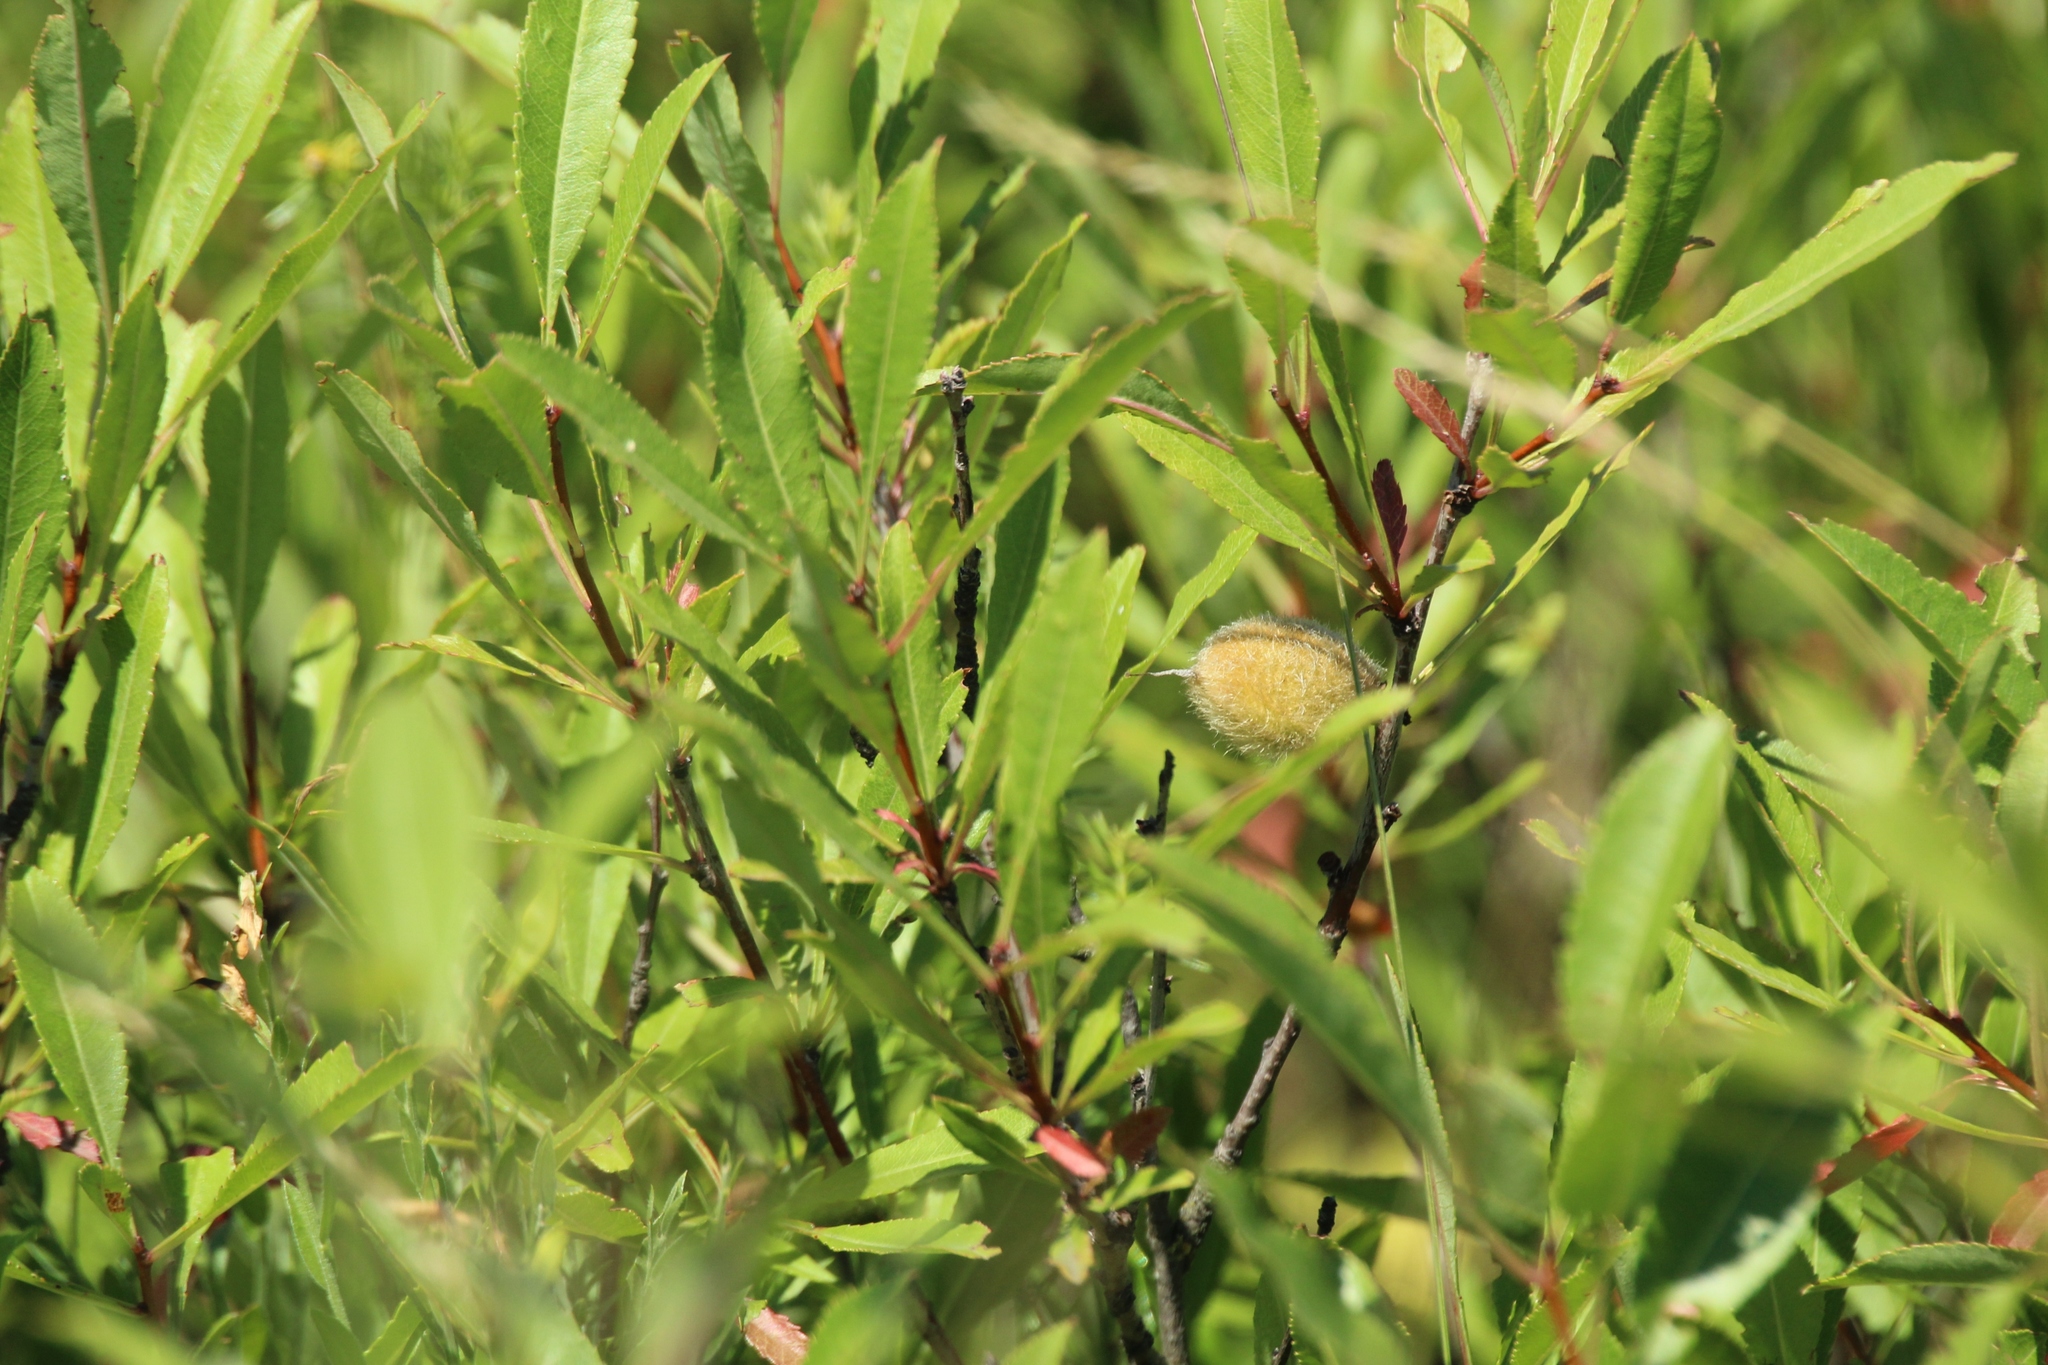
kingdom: Plantae
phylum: Tracheophyta
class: Magnoliopsida
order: Rosales
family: Rosaceae
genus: Prunus
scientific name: Prunus tenella
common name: Dwarf russian almond
